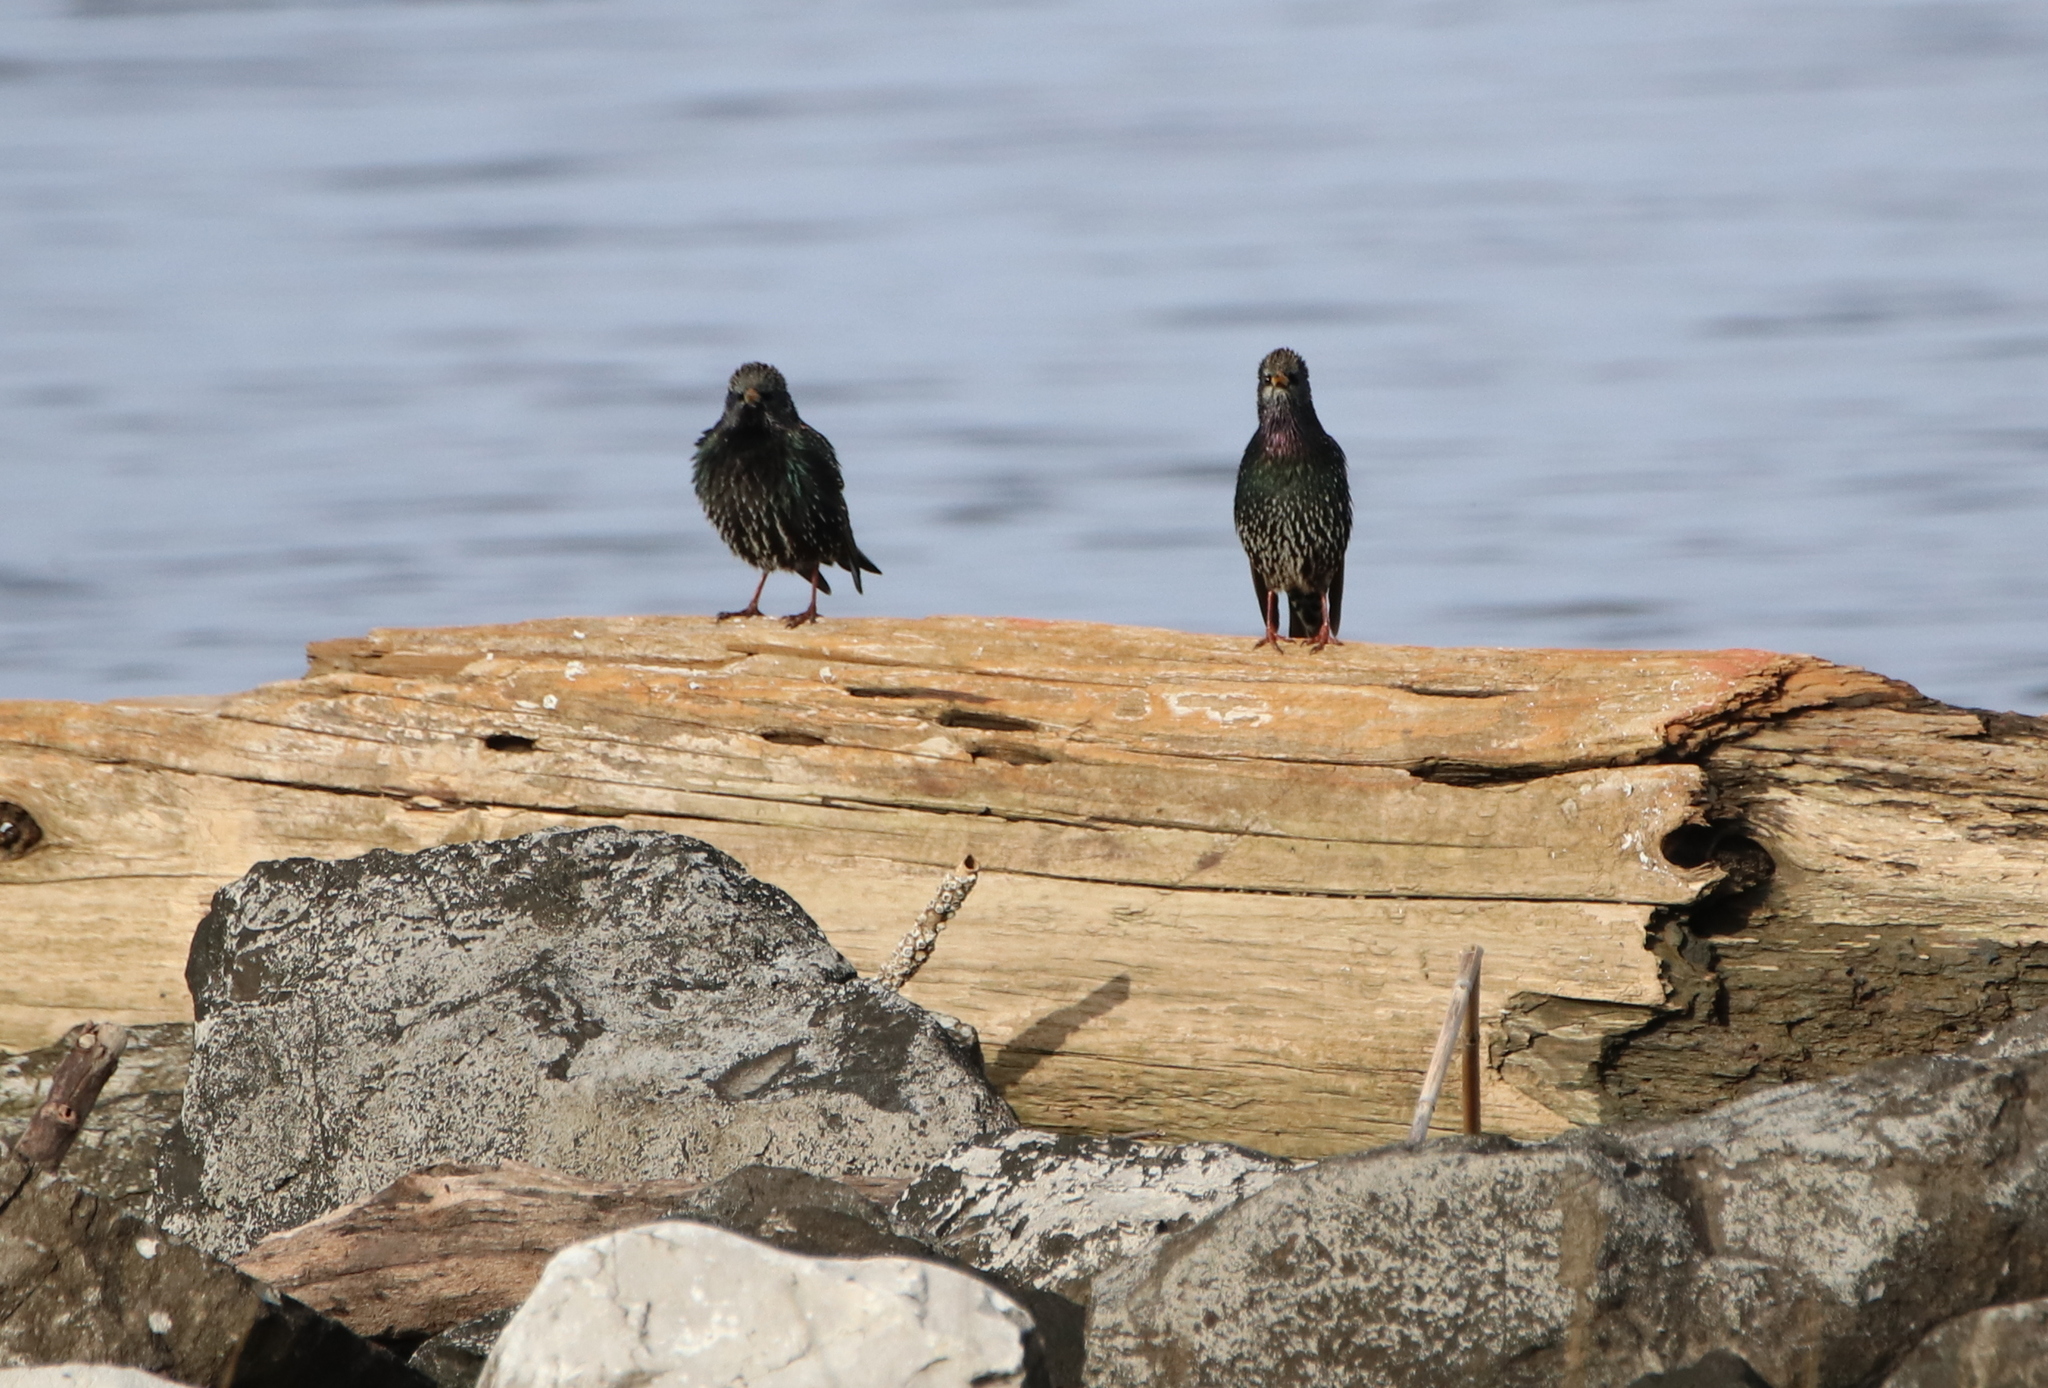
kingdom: Animalia
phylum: Chordata
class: Aves
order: Passeriformes
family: Sturnidae
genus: Sturnus
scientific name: Sturnus vulgaris
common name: Common starling
